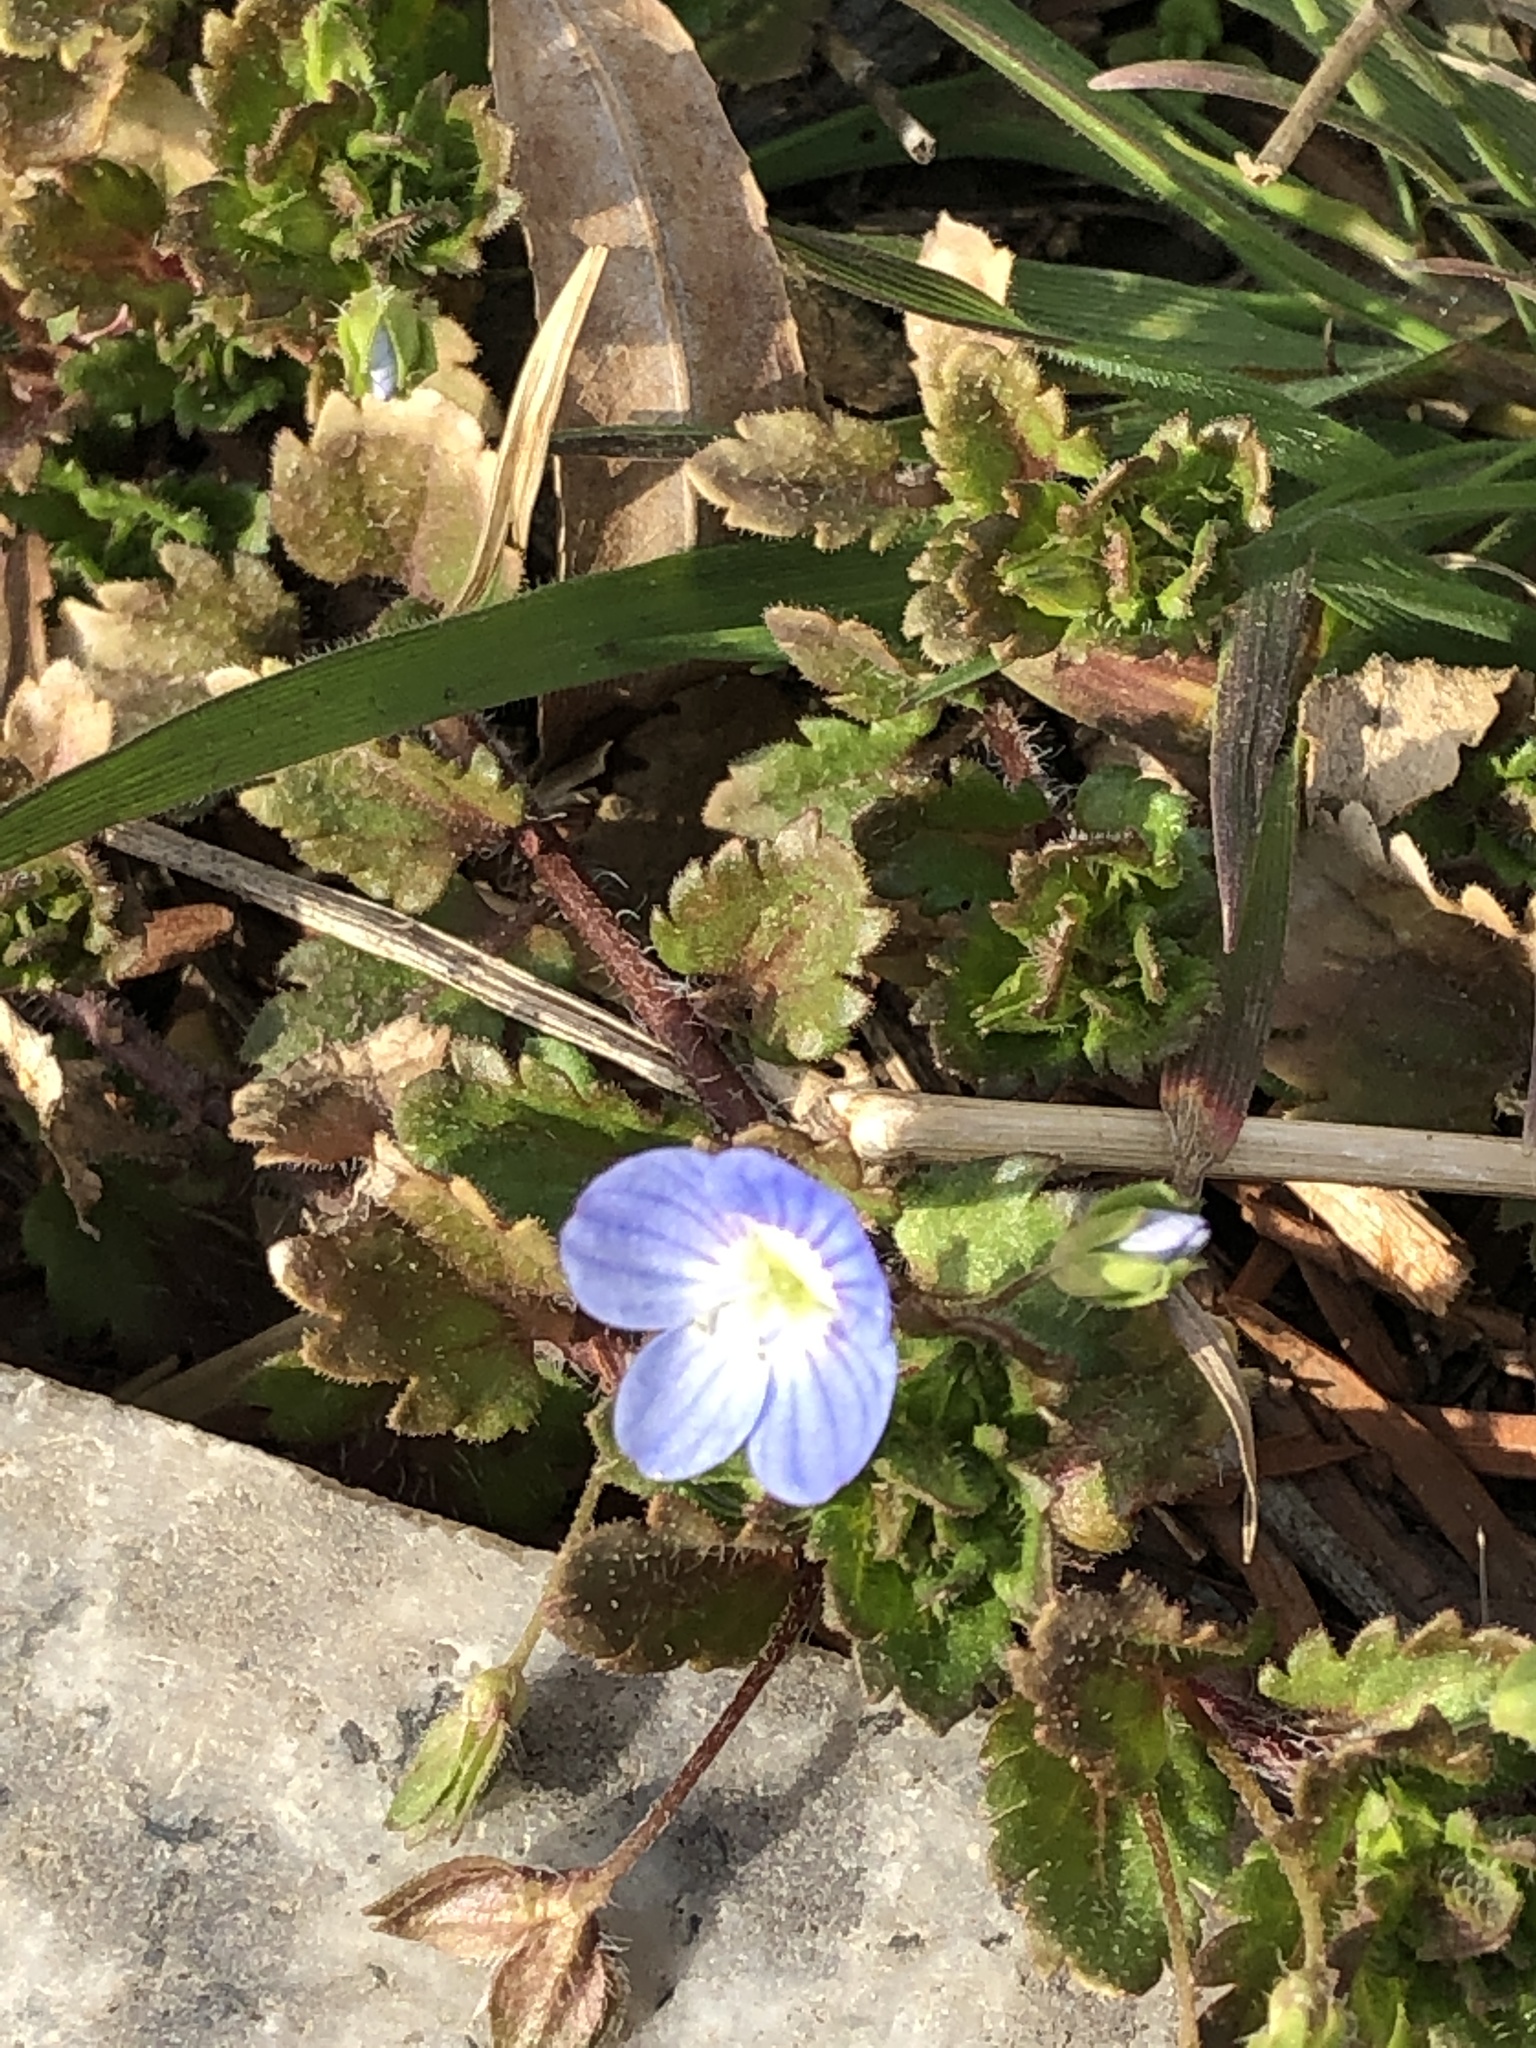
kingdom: Plantae
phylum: Tracheophyta
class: Magnoliopsida
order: Lamiales
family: Plantaginaceae
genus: Veronica
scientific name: Veronica persica
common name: Common field-speedwell
